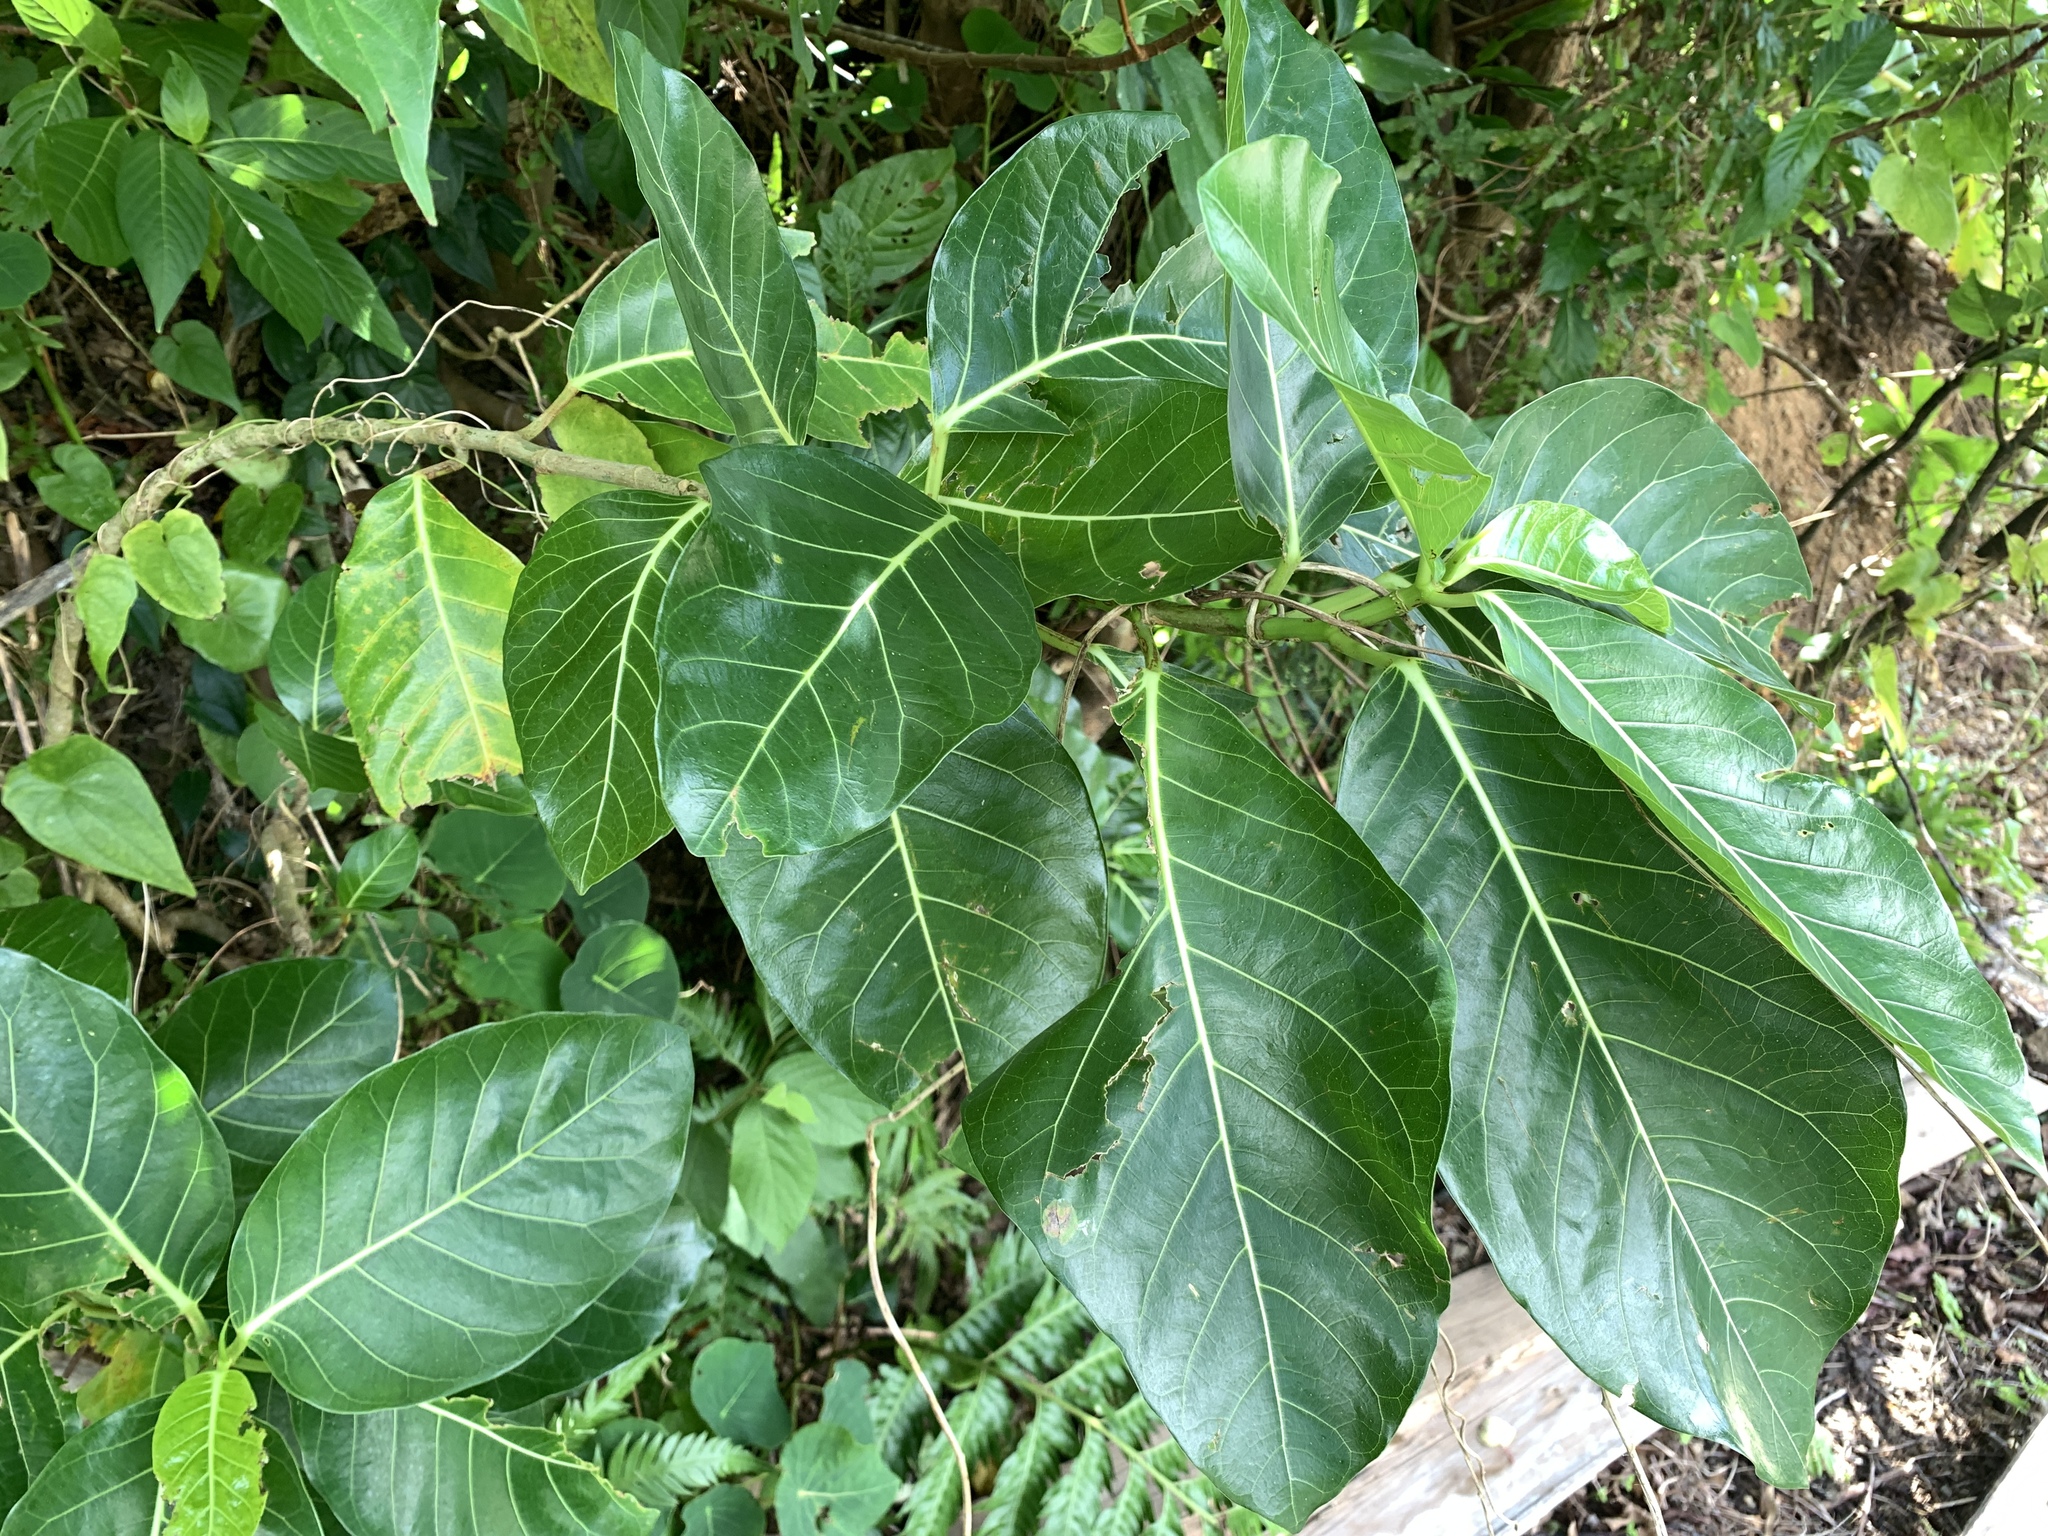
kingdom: Plantae
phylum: Tracheophyta
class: Magnoliopsida
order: Rosales
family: Moraceae
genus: Ficus
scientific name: Ficus septica
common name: Septic fig
